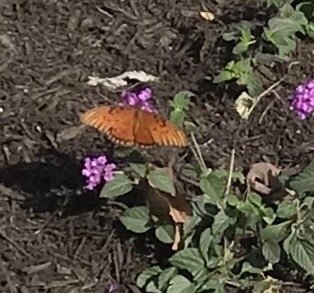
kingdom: Animalia
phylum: Arthropoda
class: Insecta
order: Lepidoptera
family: Nymphalidae
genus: Dione
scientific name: Dione vanillae
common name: Gulf fritillary
